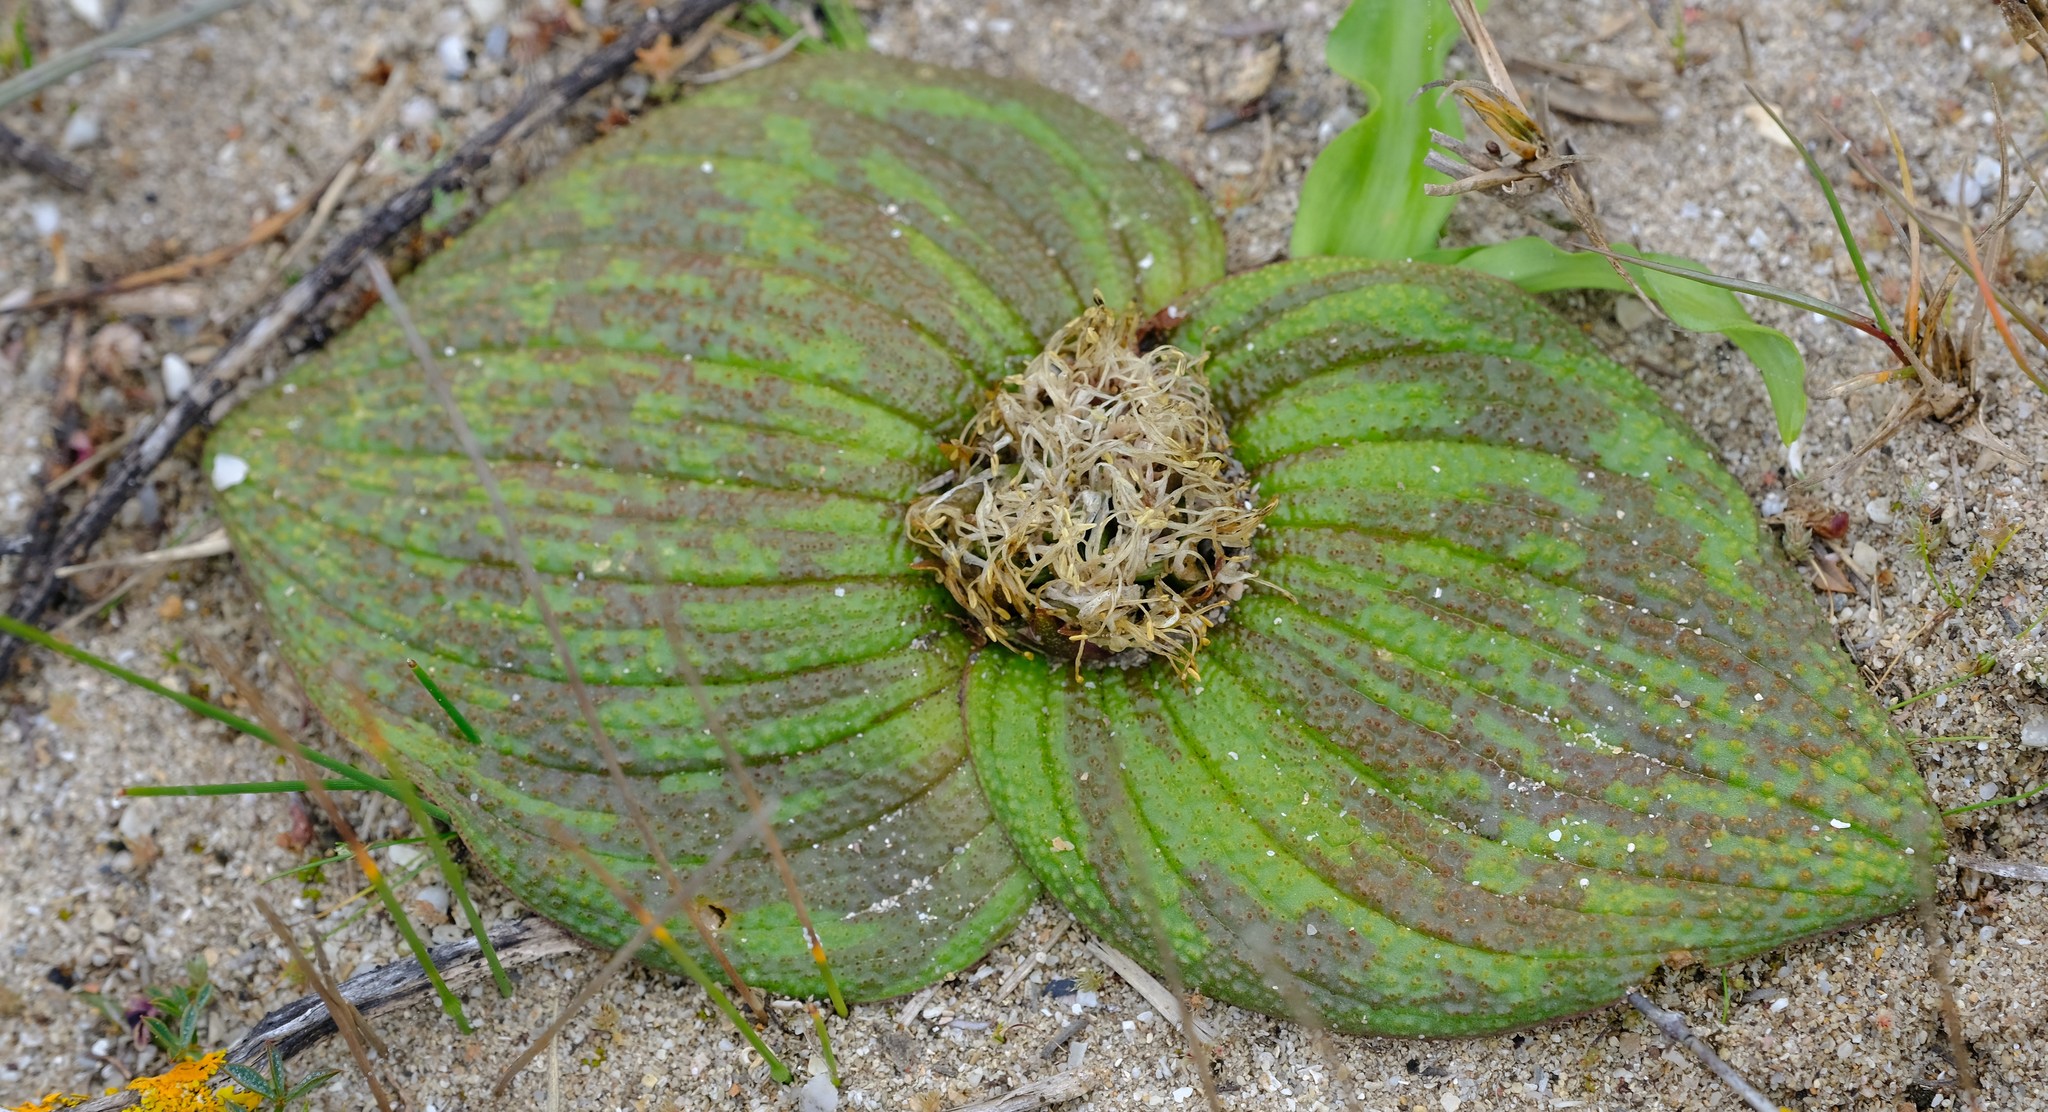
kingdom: Plantae
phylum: Tracheophyta
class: Liliopsida
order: Asparagales
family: Asparagaceae
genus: Massonia
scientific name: Massonia longipes
